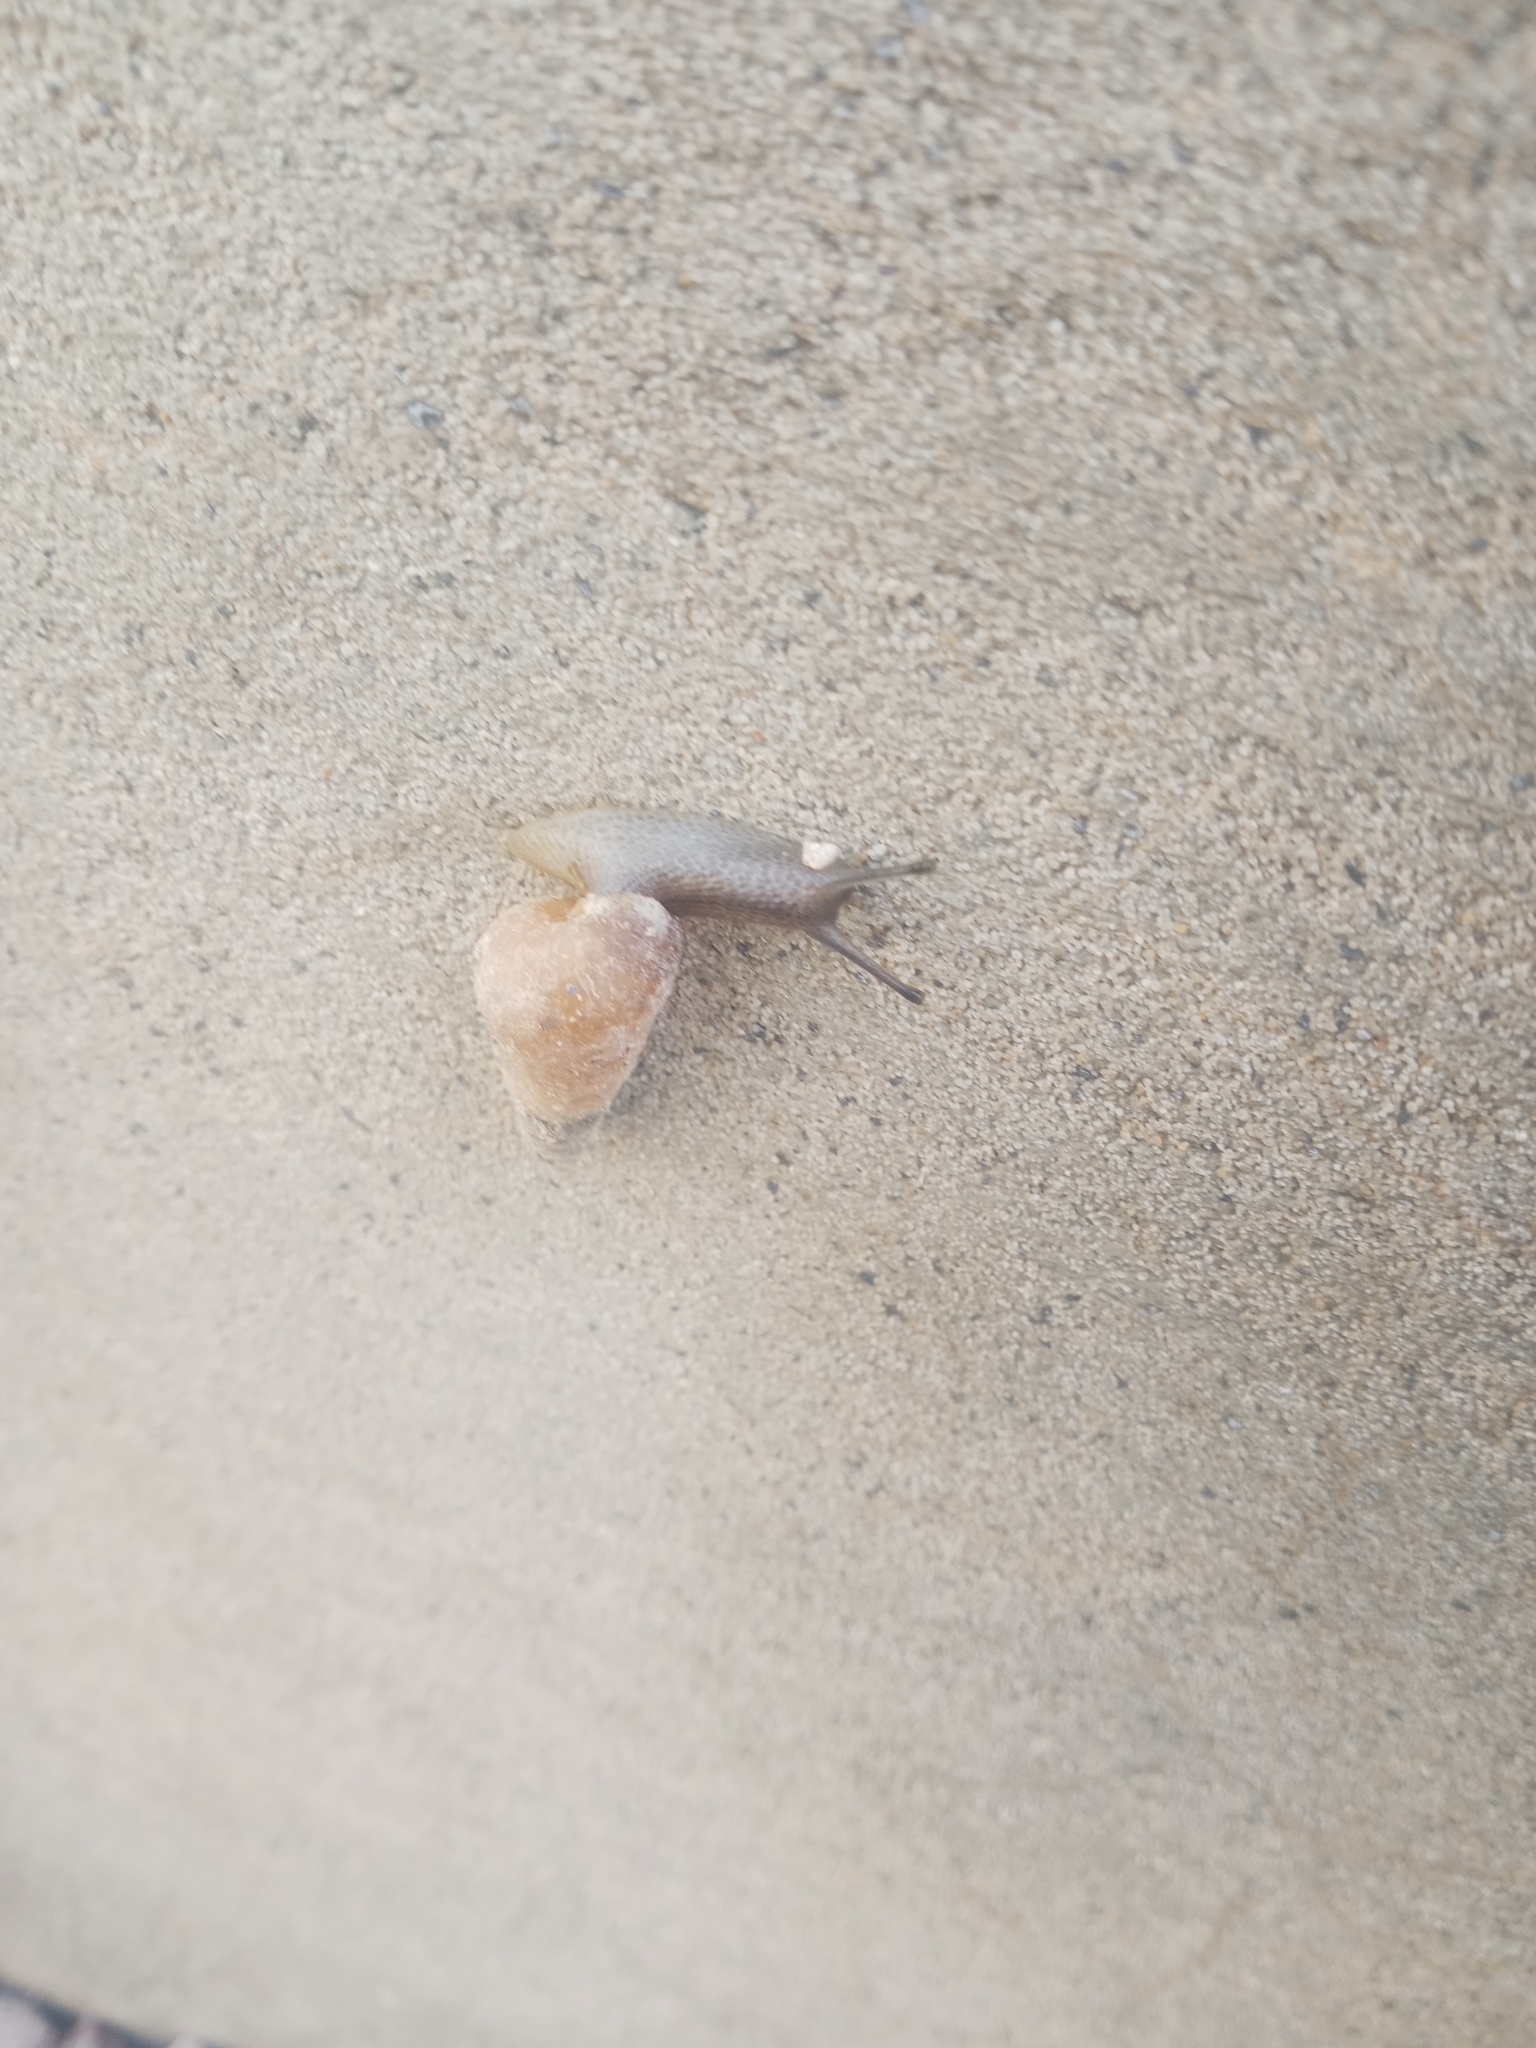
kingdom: Animalia
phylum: Mollusca
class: Gastropoda
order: Stylommatophora
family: Achatinidae
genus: Rumina
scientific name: Rumina decollata
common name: Decollate snail
